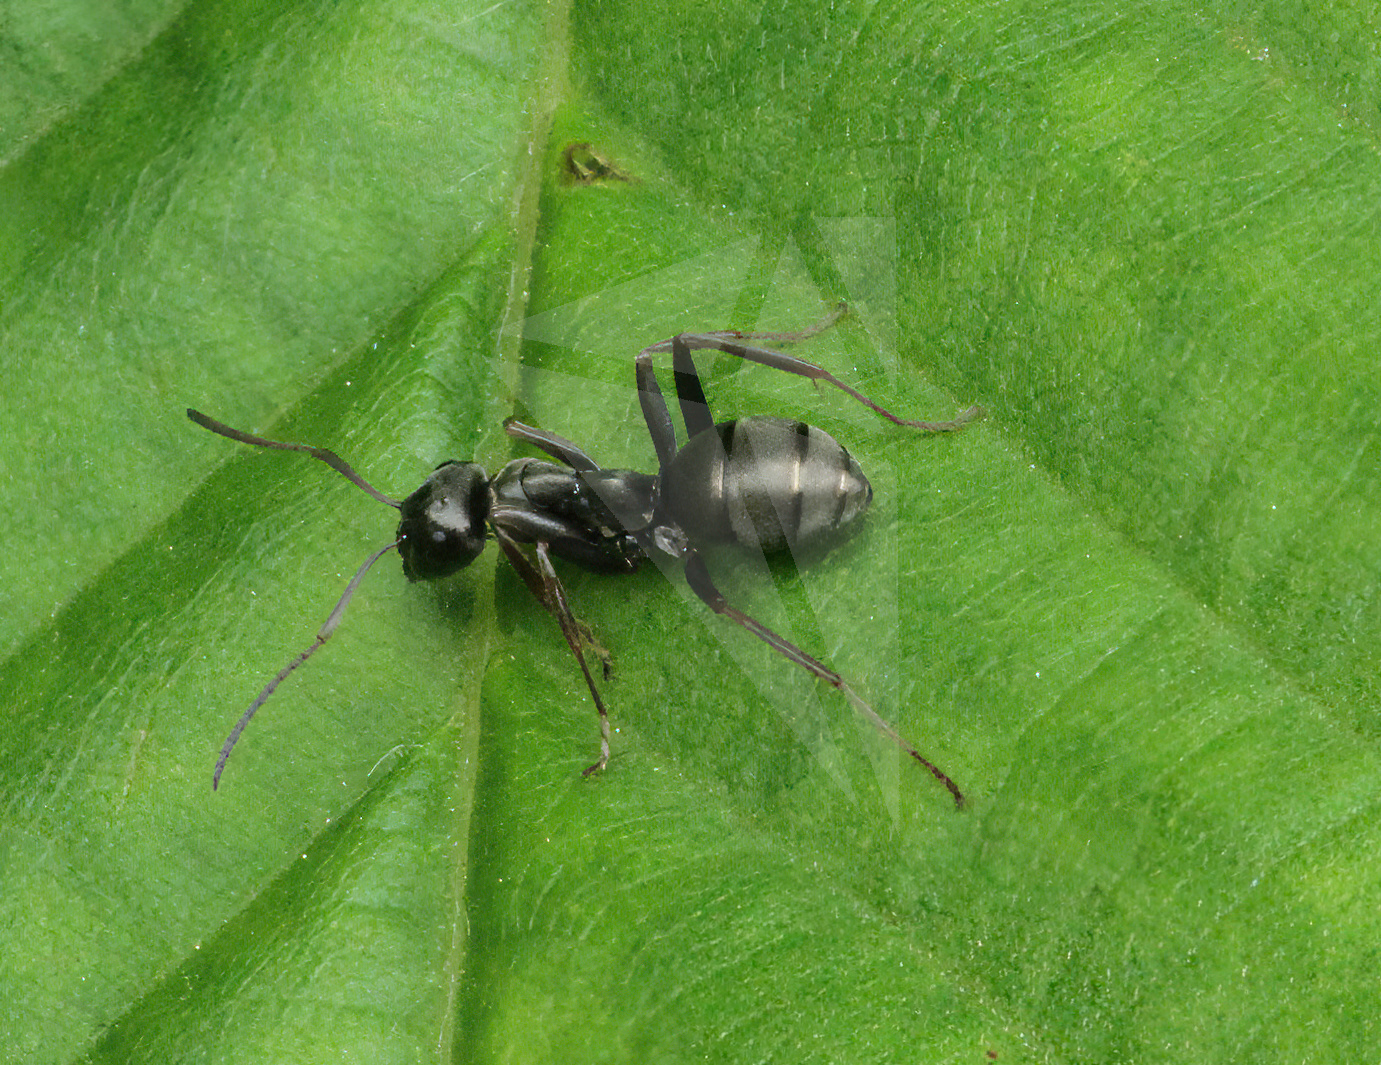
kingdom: Animalia
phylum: Arthropoda
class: Insecta
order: Hymenoptera
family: Formicidae
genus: Formica
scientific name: Formica fusca
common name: Silky ant
